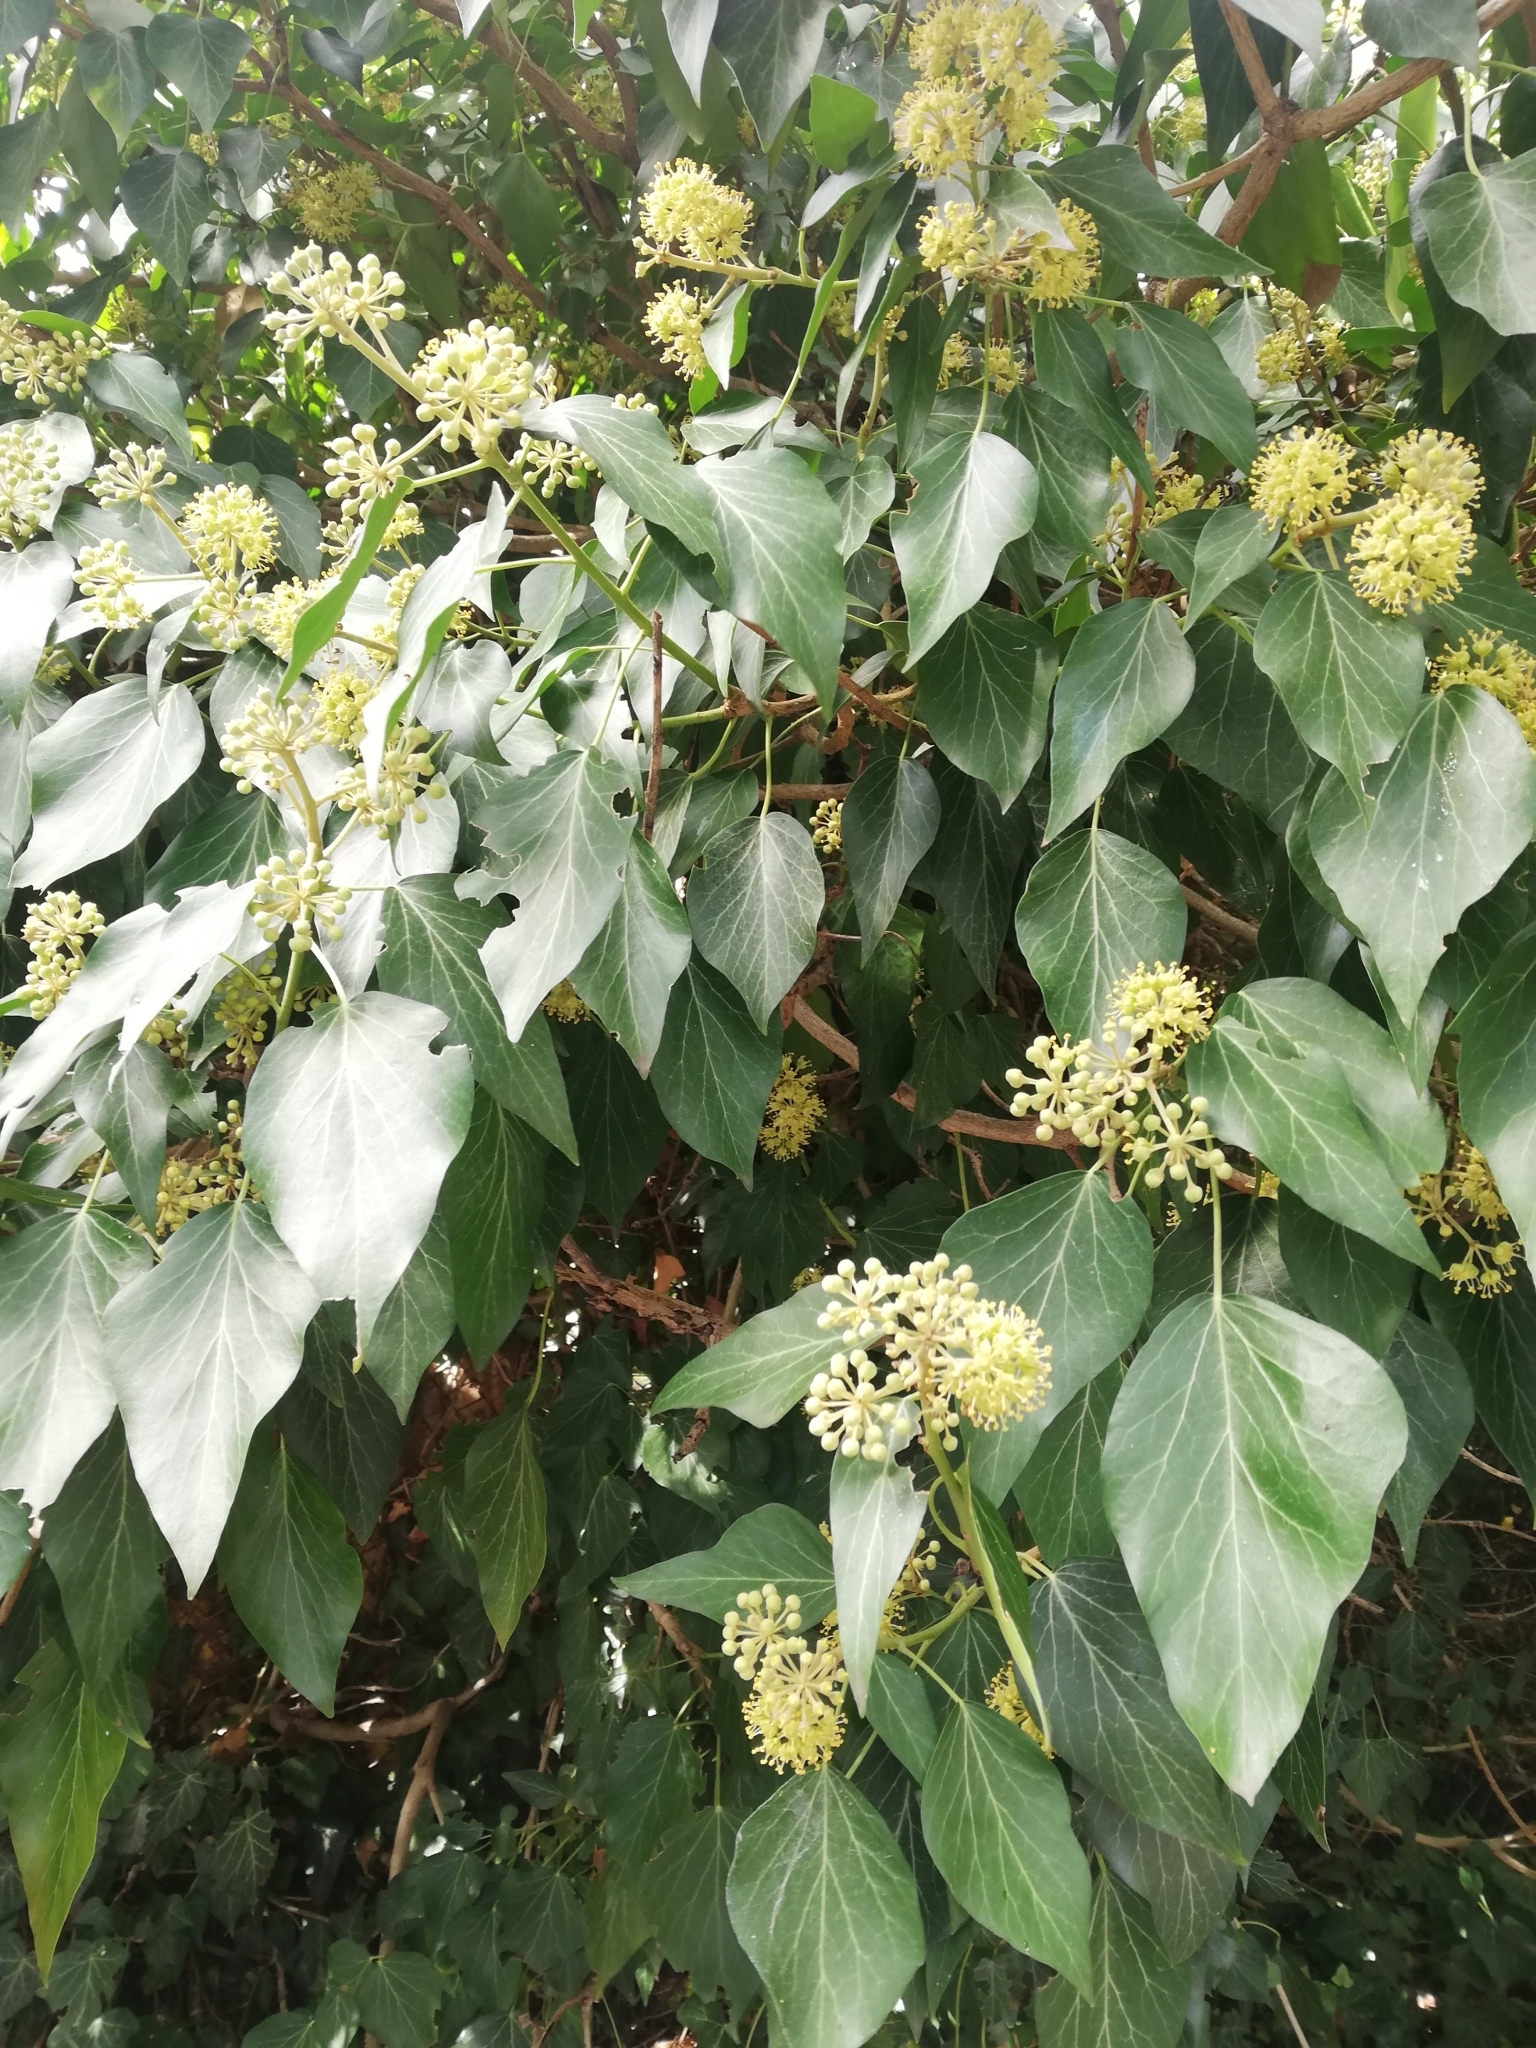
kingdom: Plantae
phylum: Tracheophyta
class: Magnoliopsida
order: Apiales
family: Araliaceae
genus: Hedera
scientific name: Hedera helix
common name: Ivy
